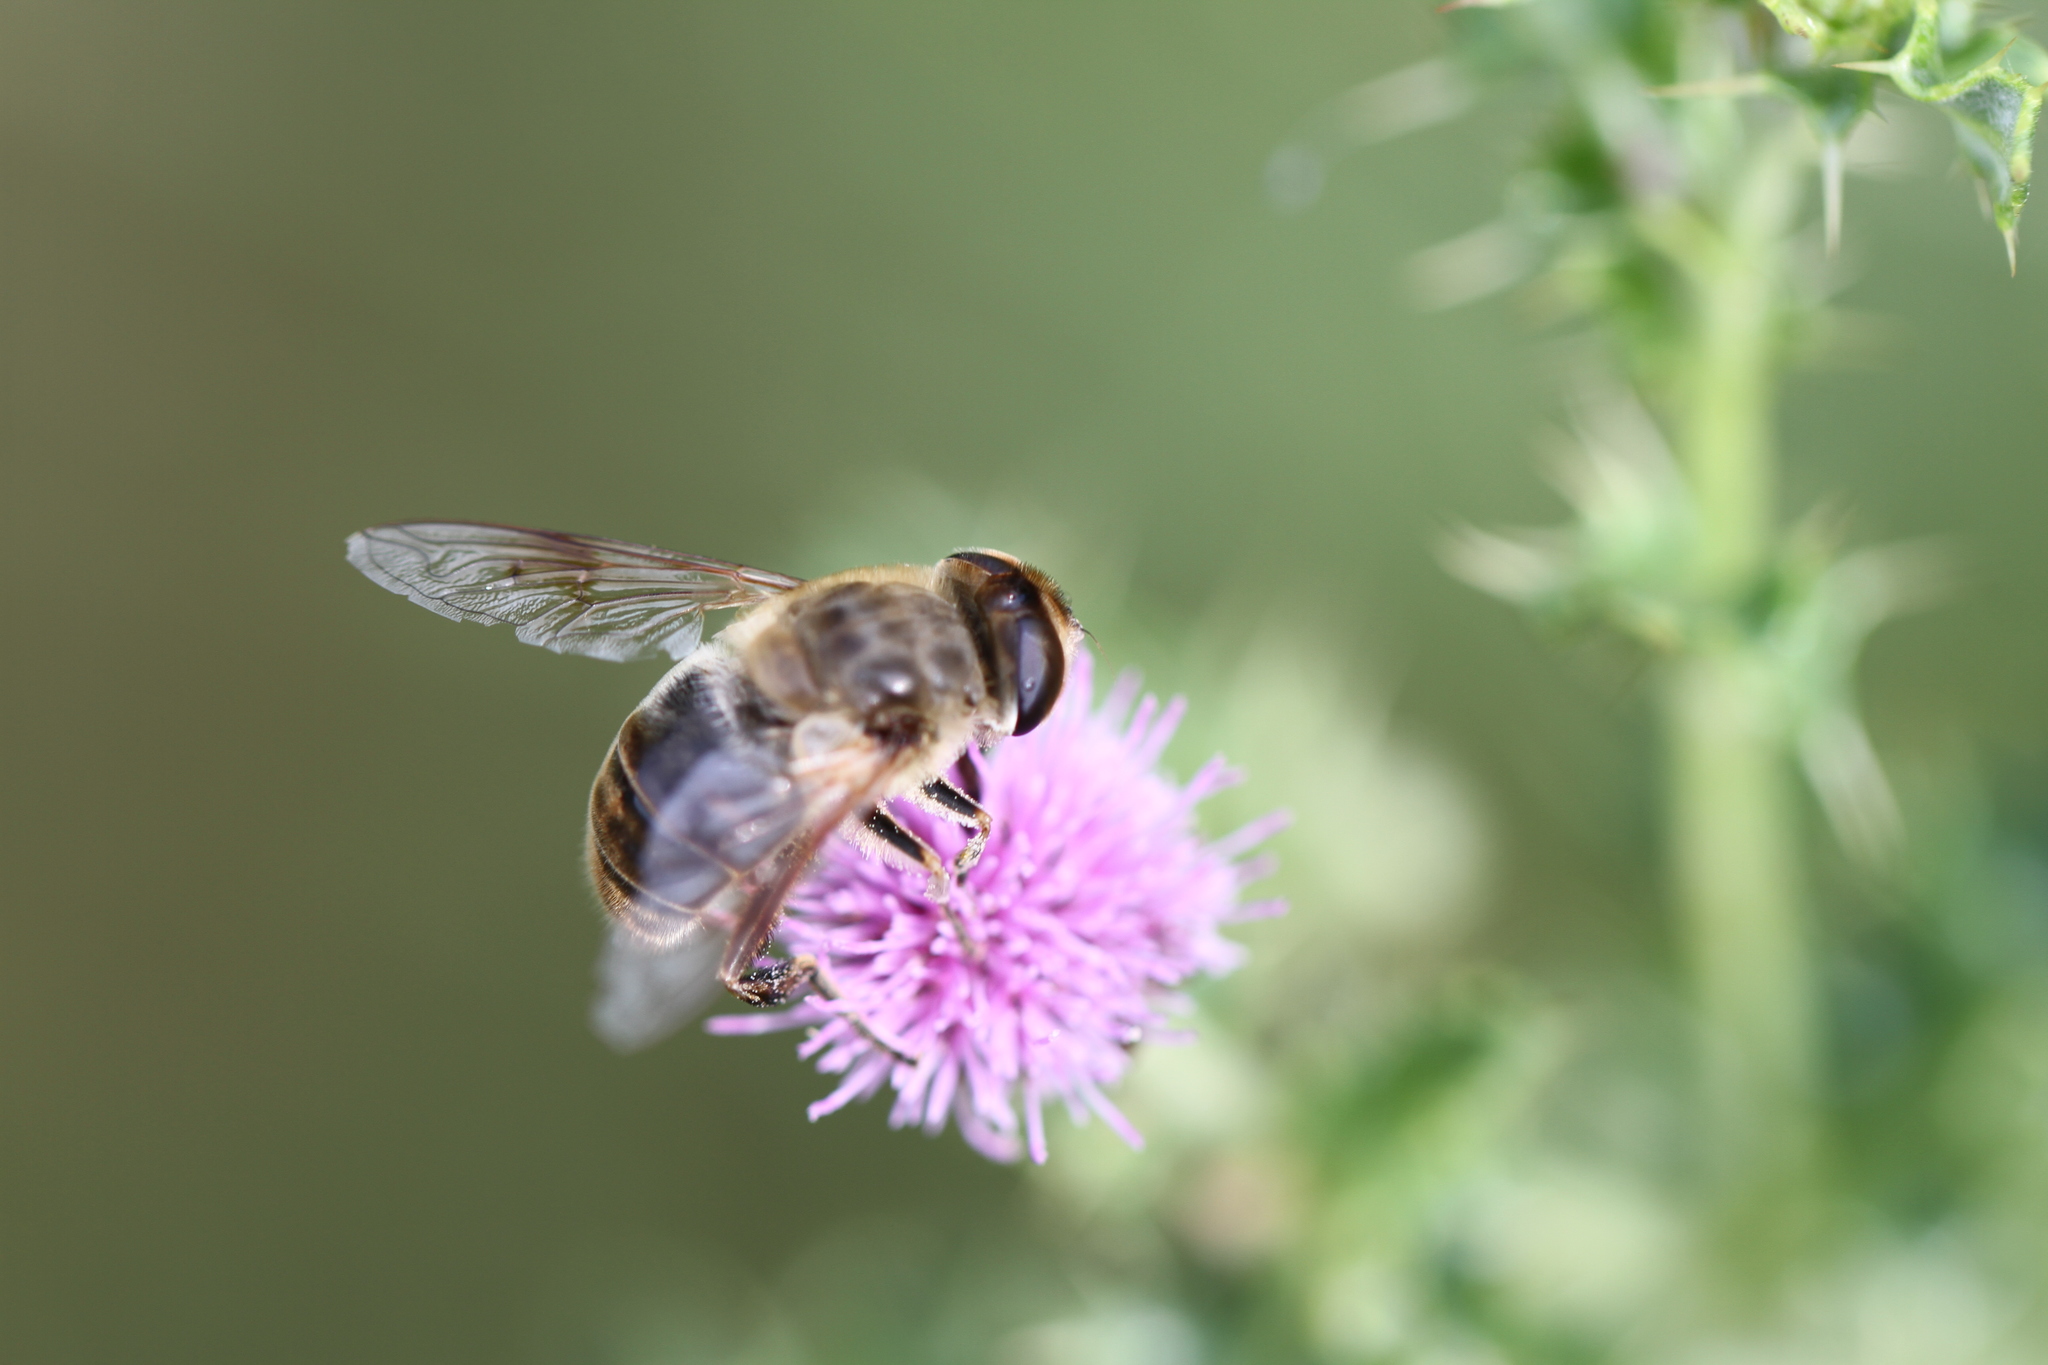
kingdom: Animalia
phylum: Arthropoda
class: Insecta
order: Diptera
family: Syrphidae
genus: Eristalis
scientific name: Eristalis tenax
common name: Drone fly
